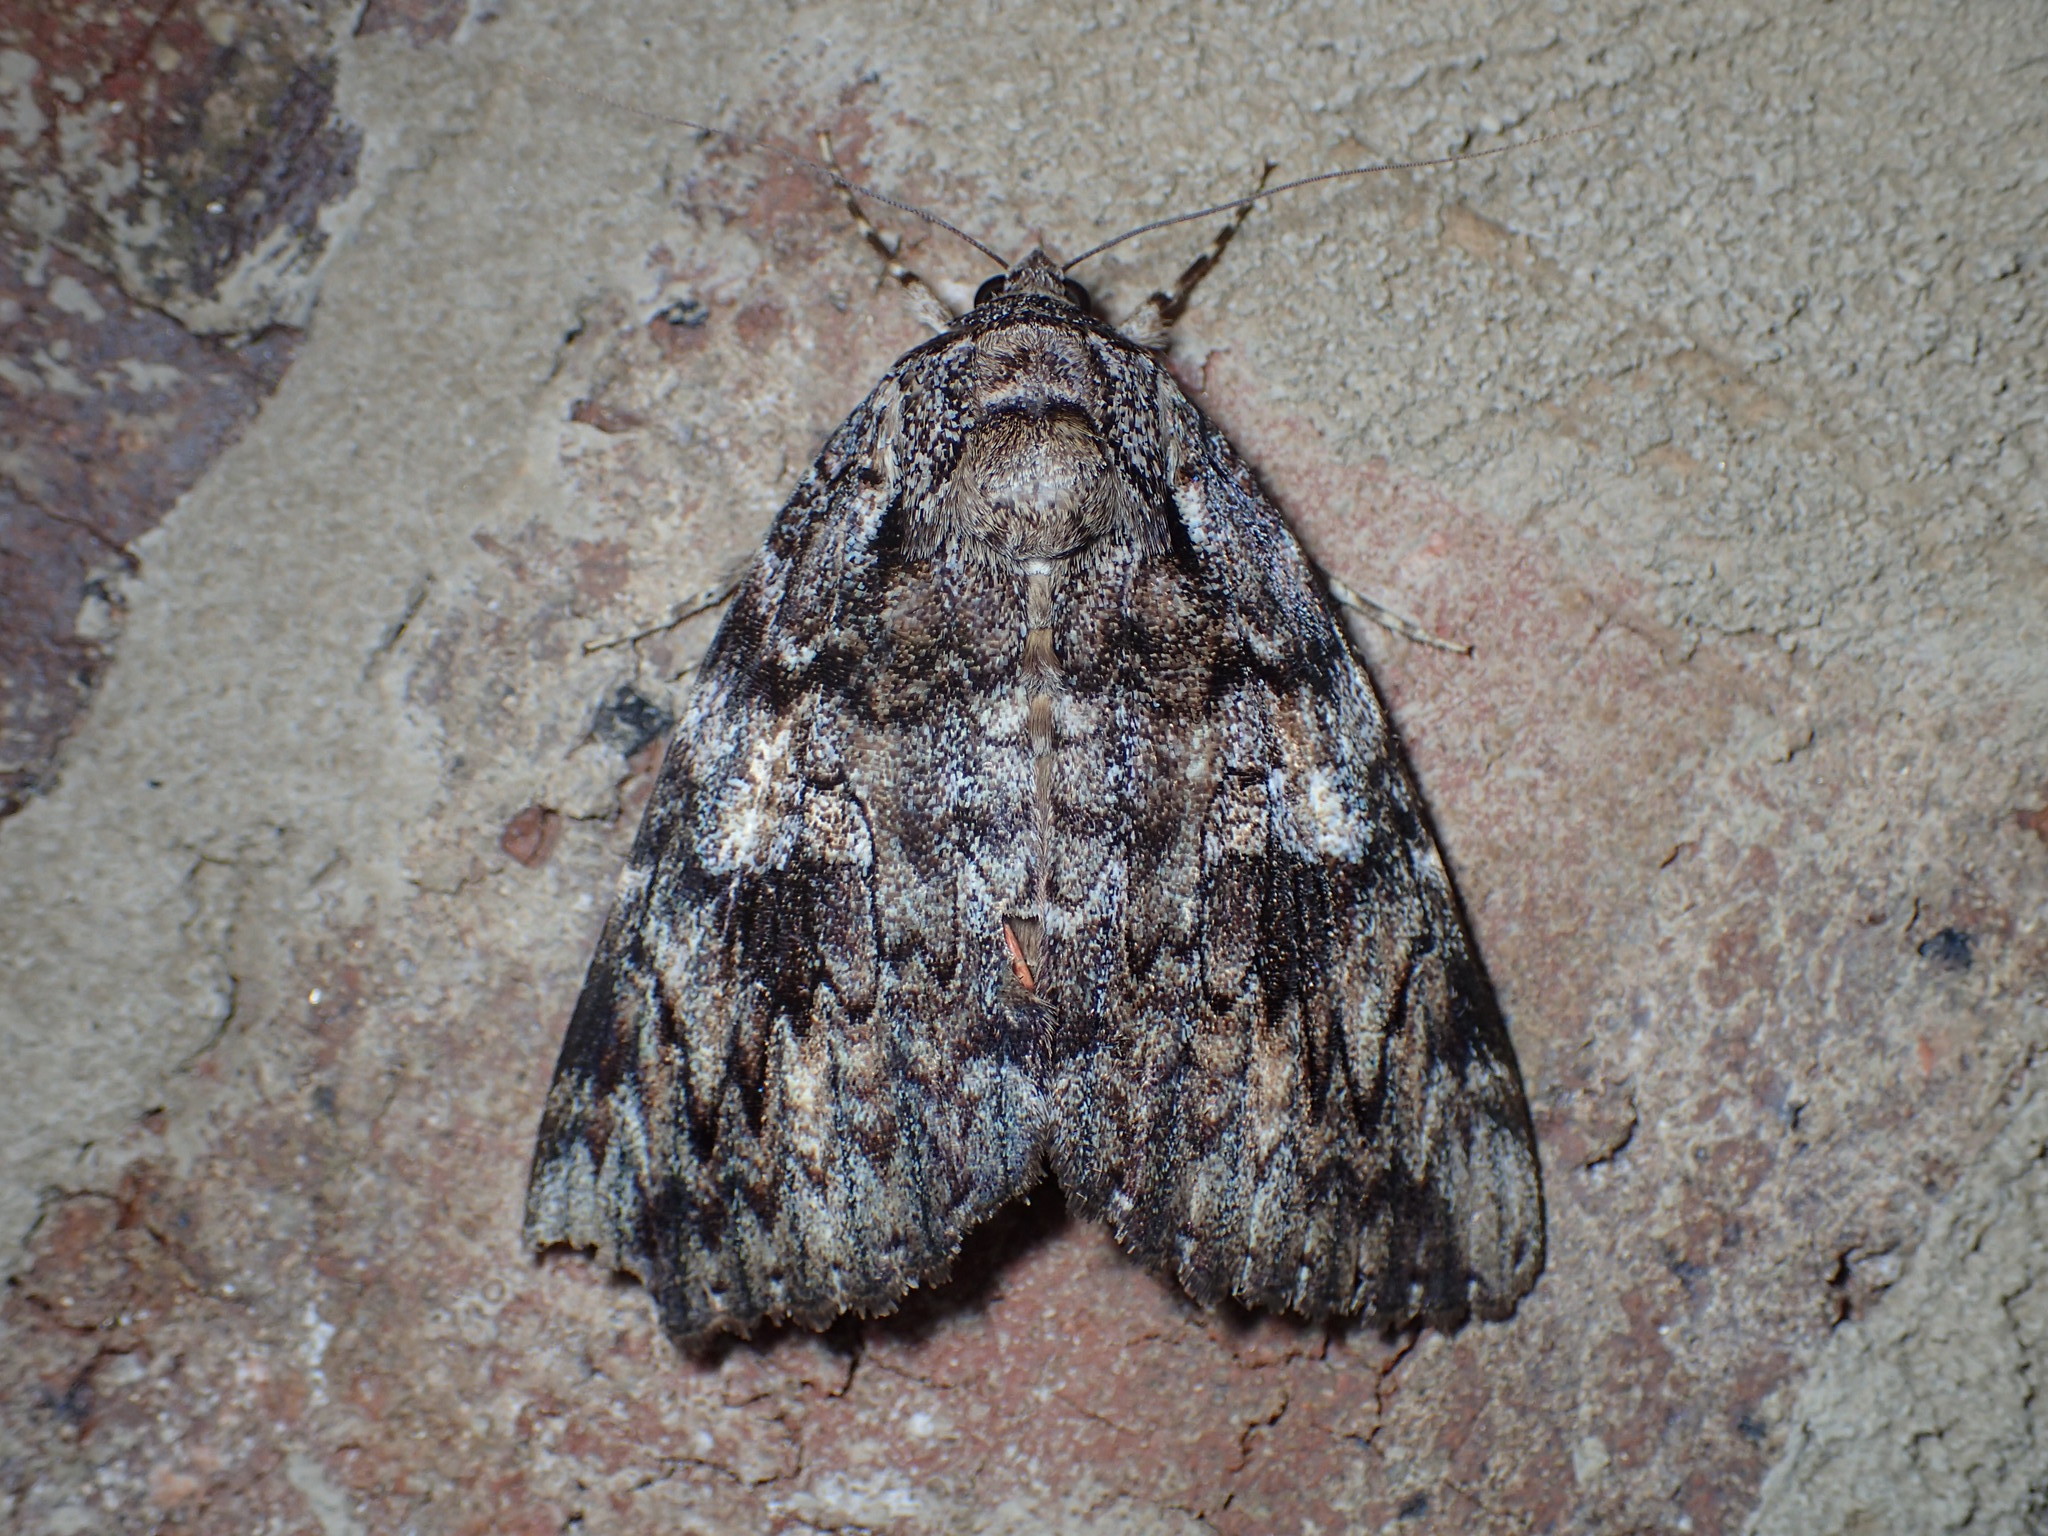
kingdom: Animalia
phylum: Arthropoda
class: Insecta
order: Lepidoptera
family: Erebidae
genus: Catocala
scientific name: Catocala ilia
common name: Ilia underwing
